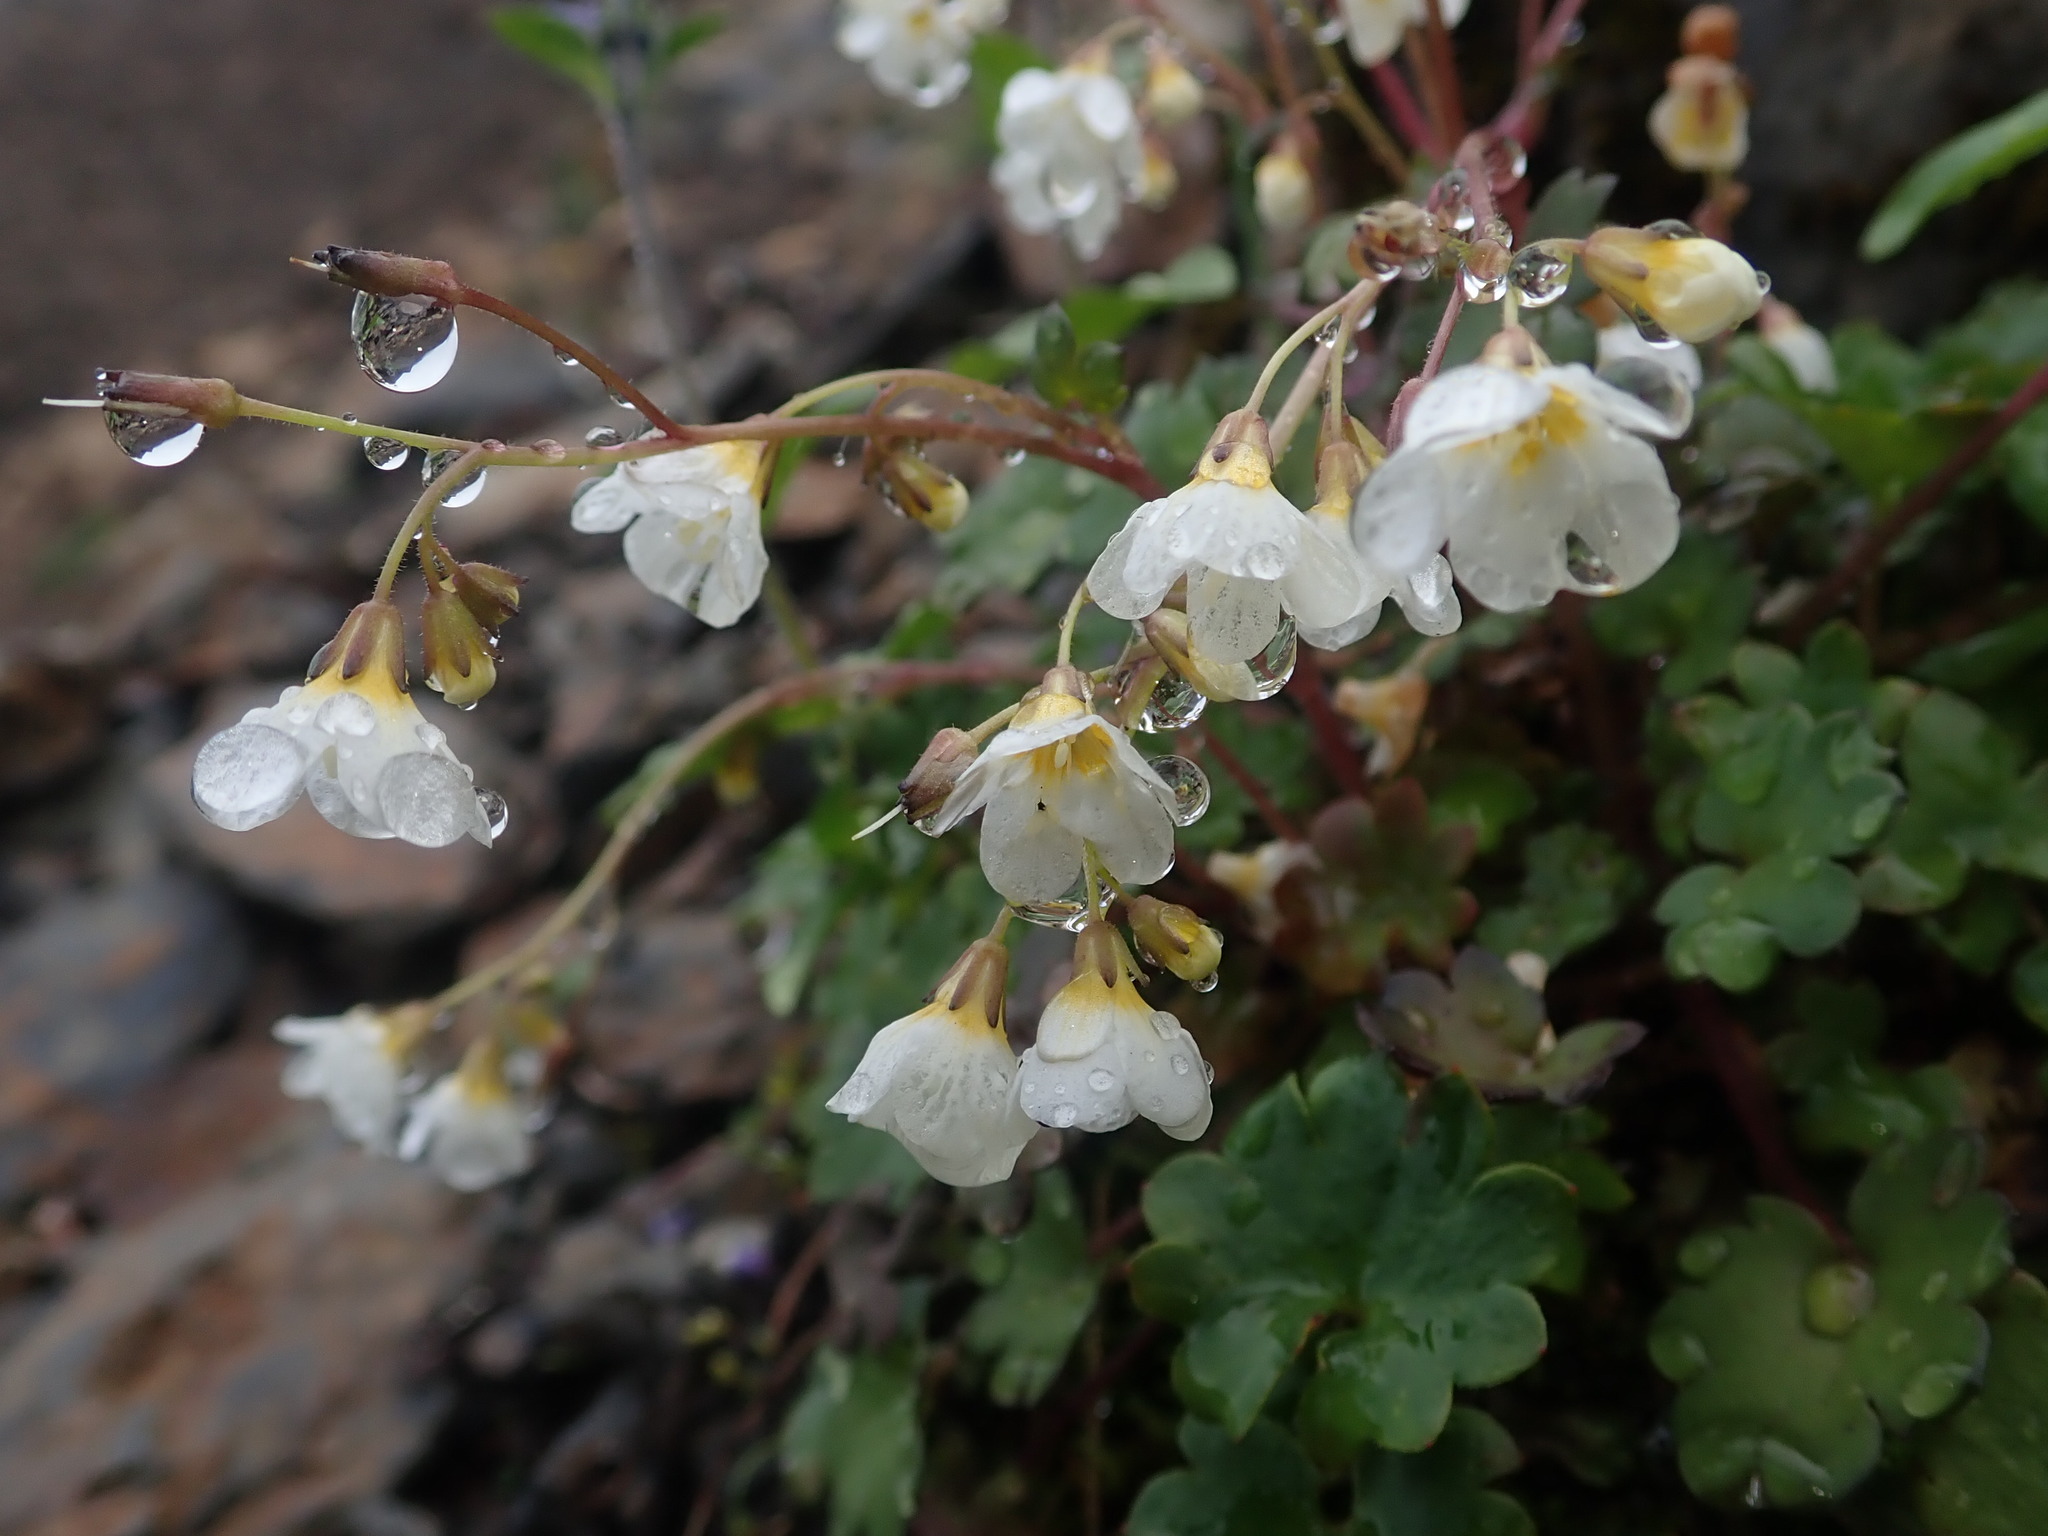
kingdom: Plantae
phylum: Tracheophyta
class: Magnoliopsida
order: Boraginales
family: Hydrophyllaceae
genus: Romanzoffia
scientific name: Romanzoffia sitchensis
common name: Sitka mistmaid
